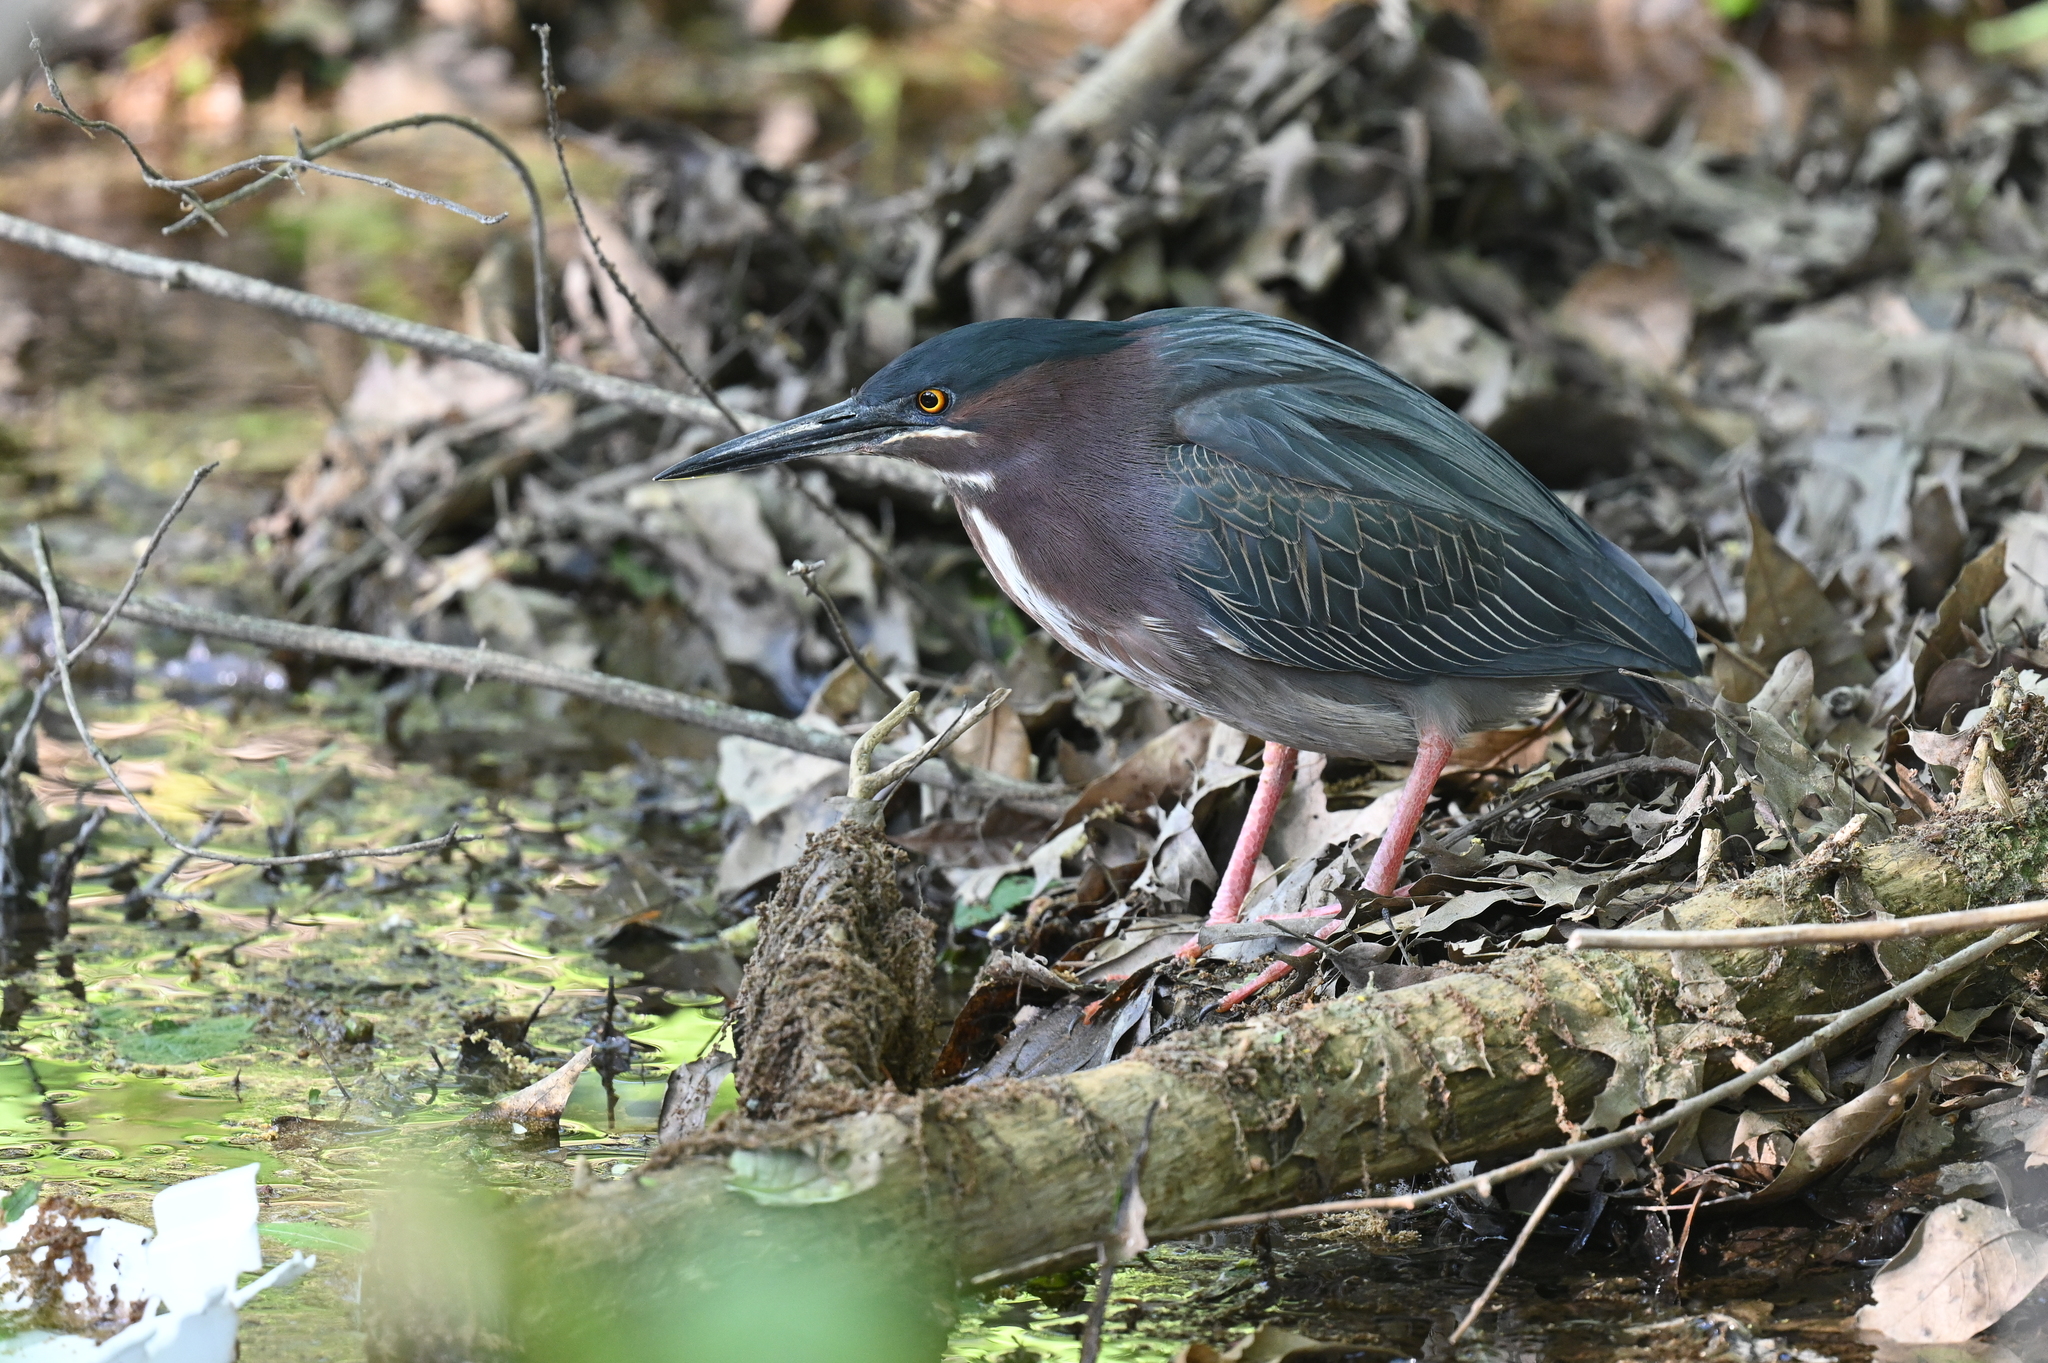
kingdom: Animalia
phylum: Chordata
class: Aves
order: Pelecaniformes
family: Ardeidae
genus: Butorides
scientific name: Butorides virescens
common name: Green heron
